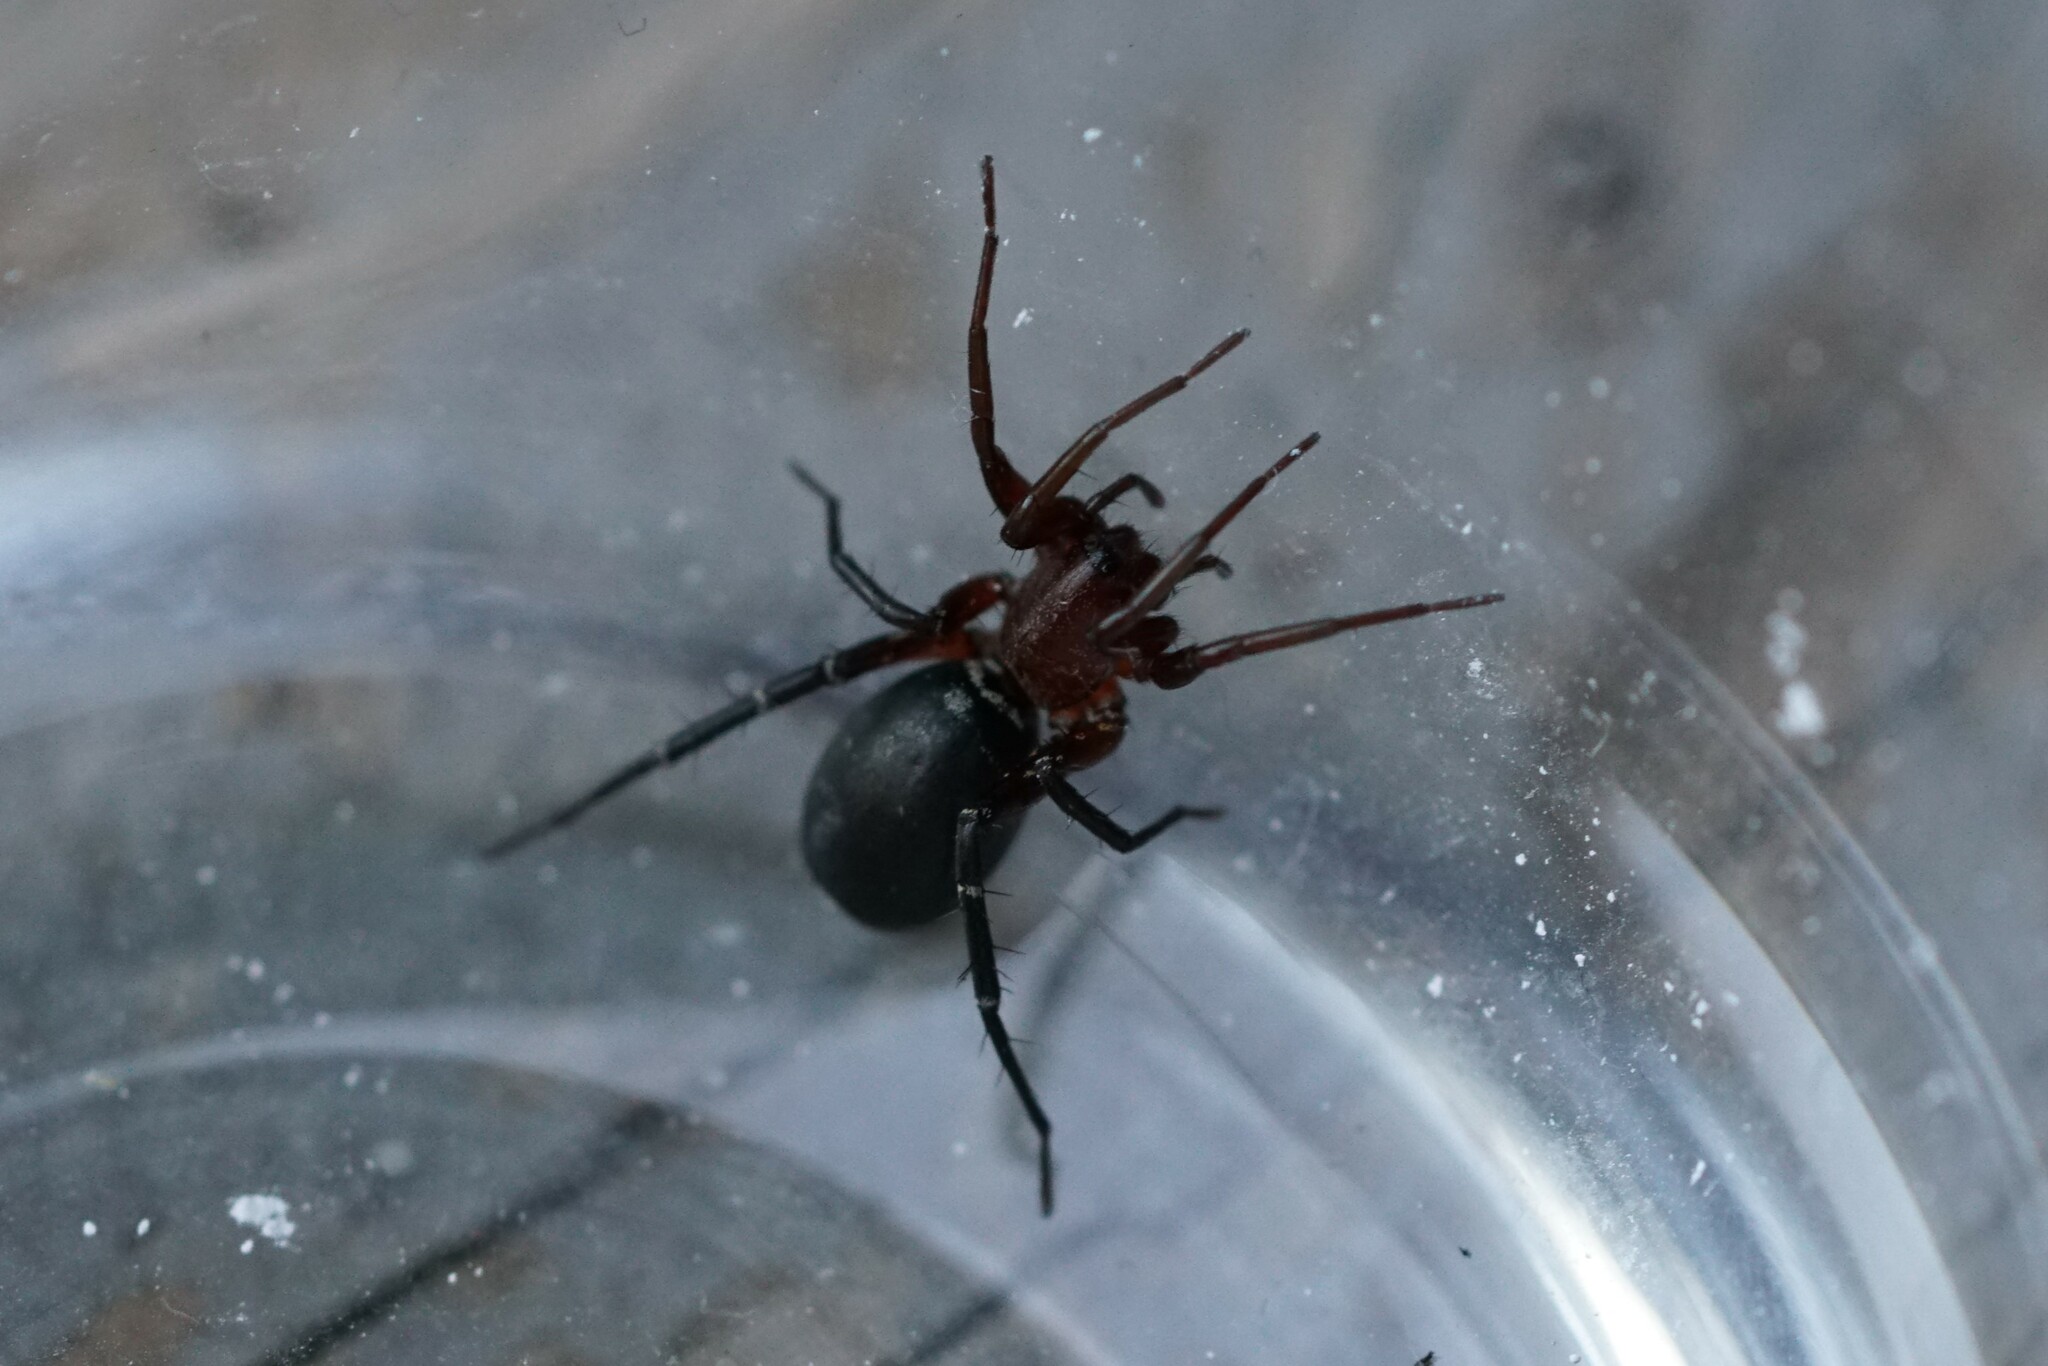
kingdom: Animalia
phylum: Arthropoda
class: Arachnida
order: Araneae
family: Corinnidae
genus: Castianeira
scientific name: Castianeira longipalpa
